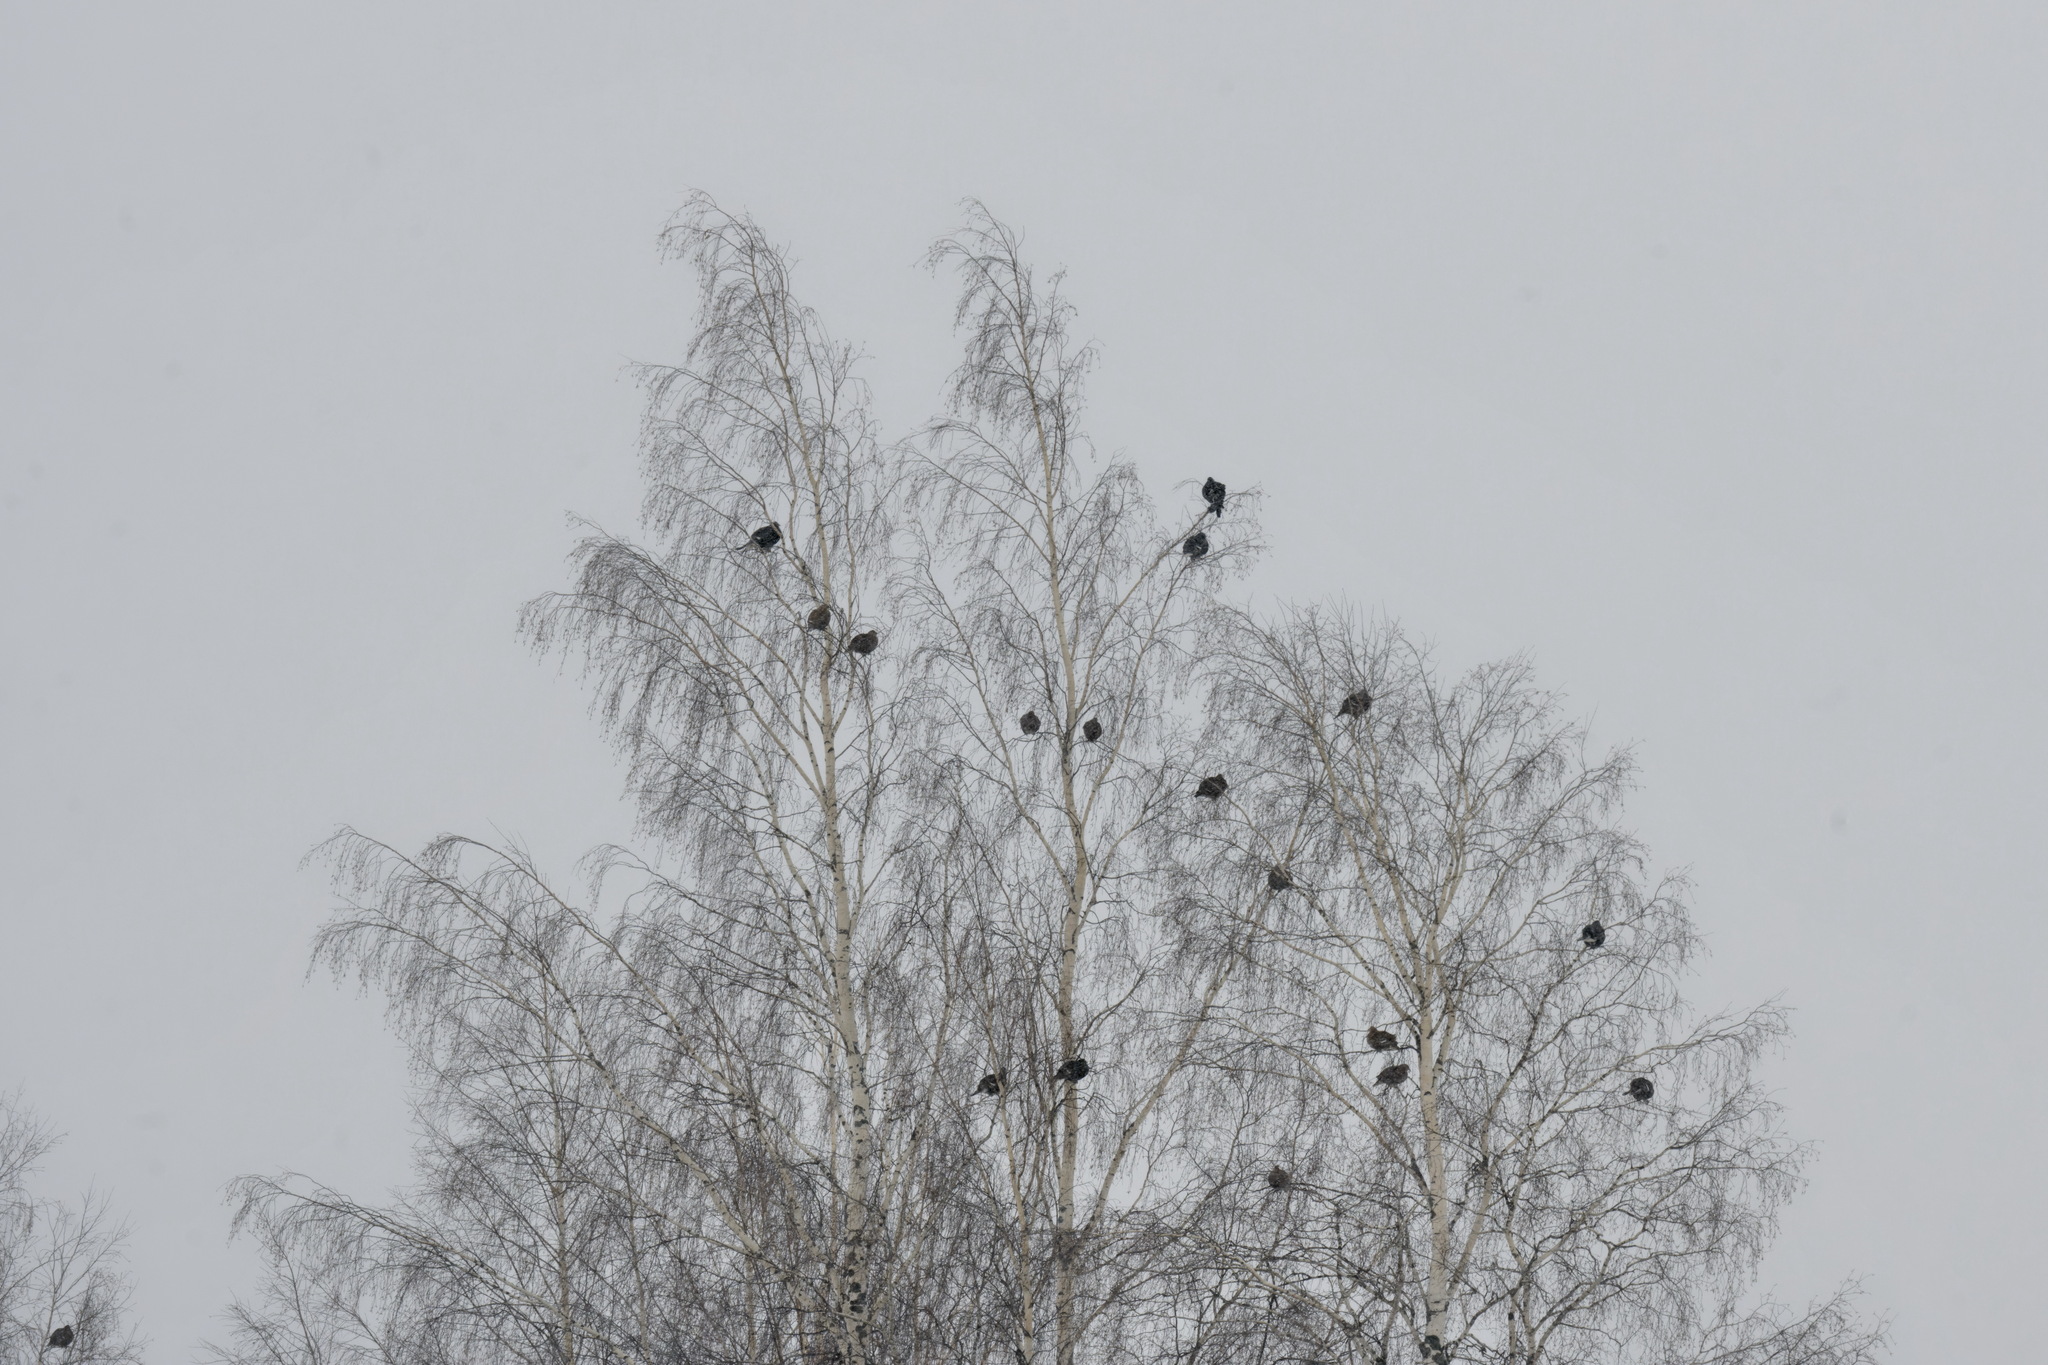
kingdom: Animalia
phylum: Chordata
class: Aves
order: Galliformes
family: Phasianidae
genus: Lyrurus
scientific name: Lyrurus tetrix
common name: Black grouse
